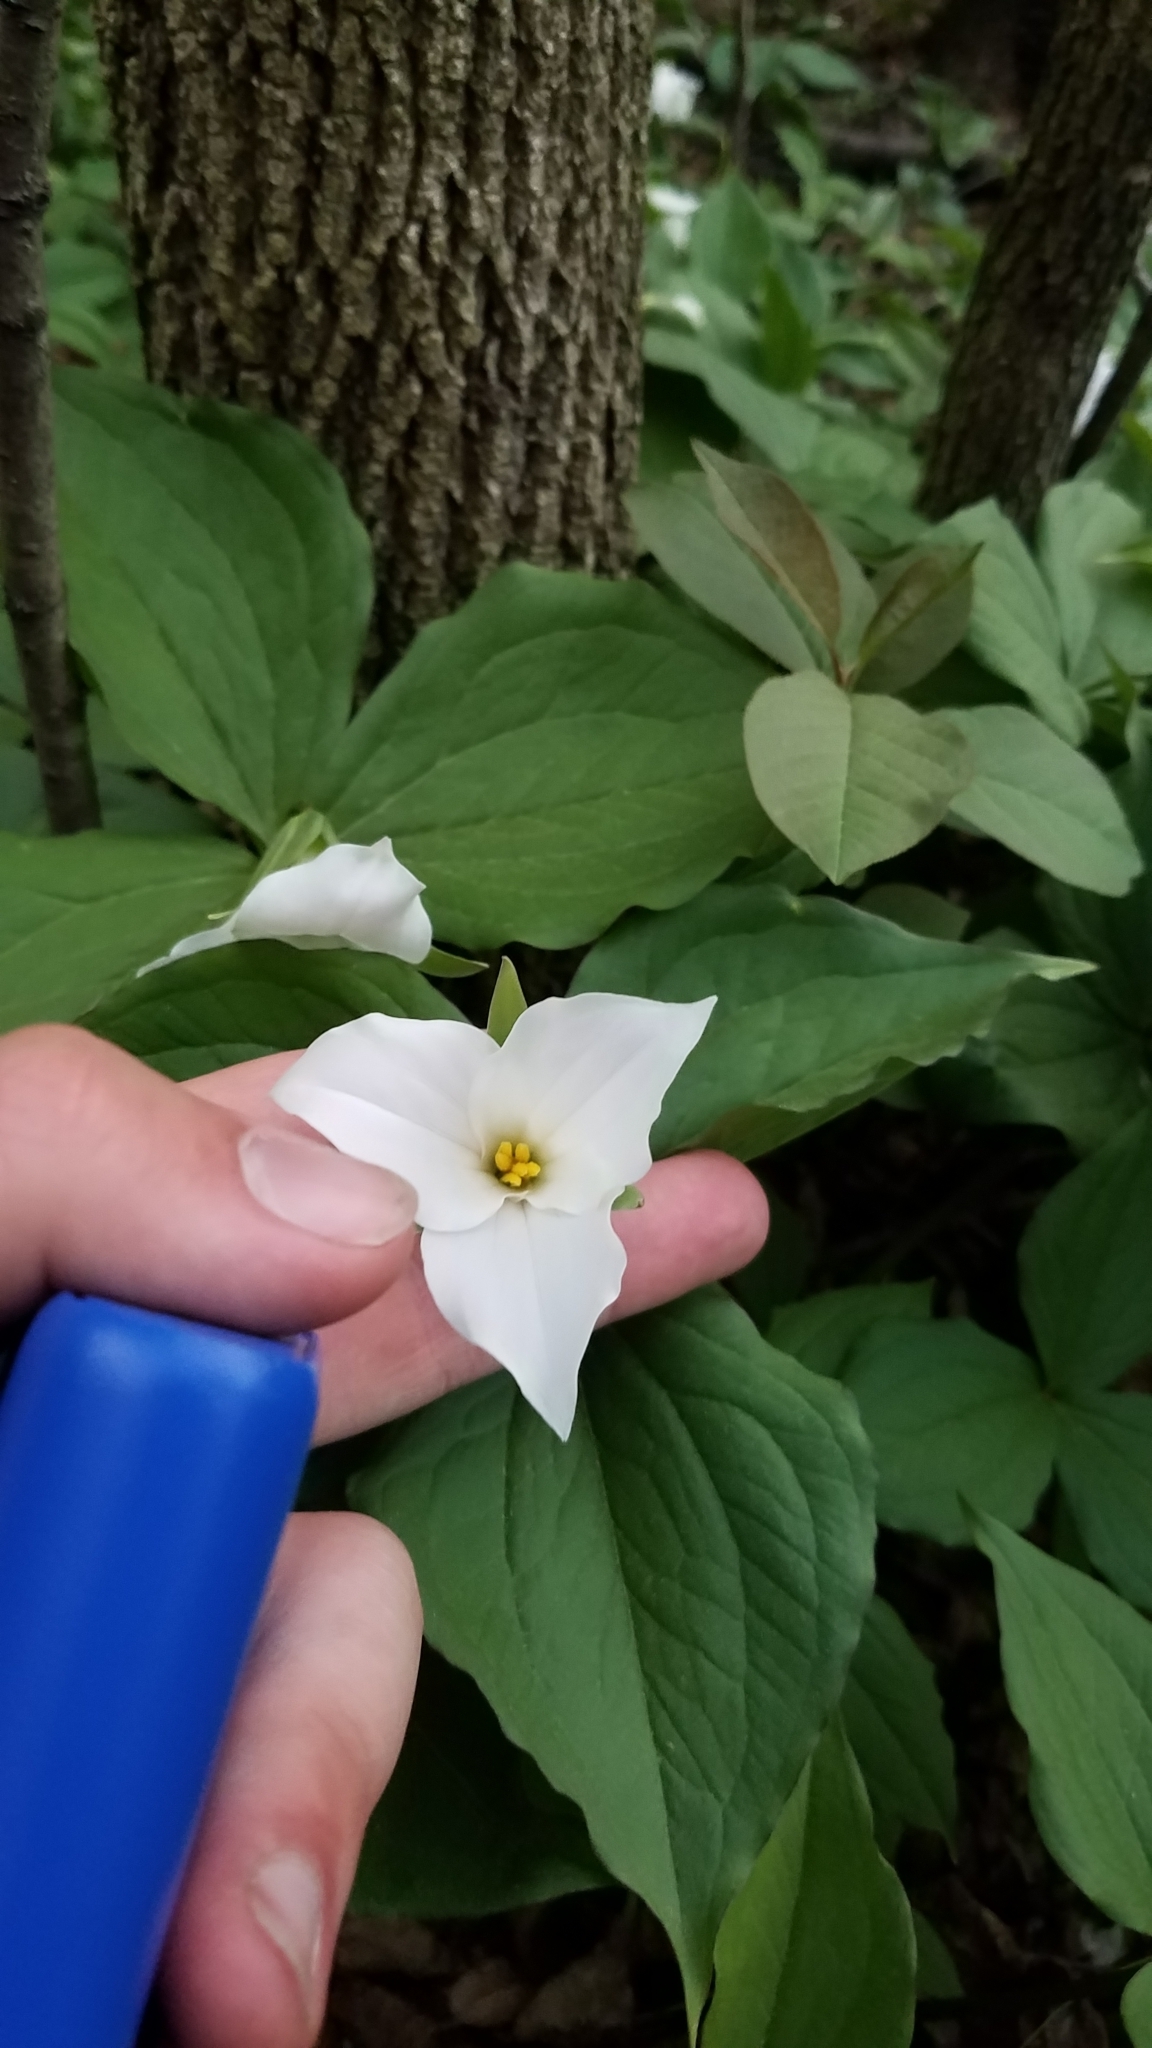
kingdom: Plantae
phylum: Tracheophyta
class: Liliopsida
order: Liliales
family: Melanthiaceae
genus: Trillium
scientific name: Trillium grandiflorum
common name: Great white trillium
